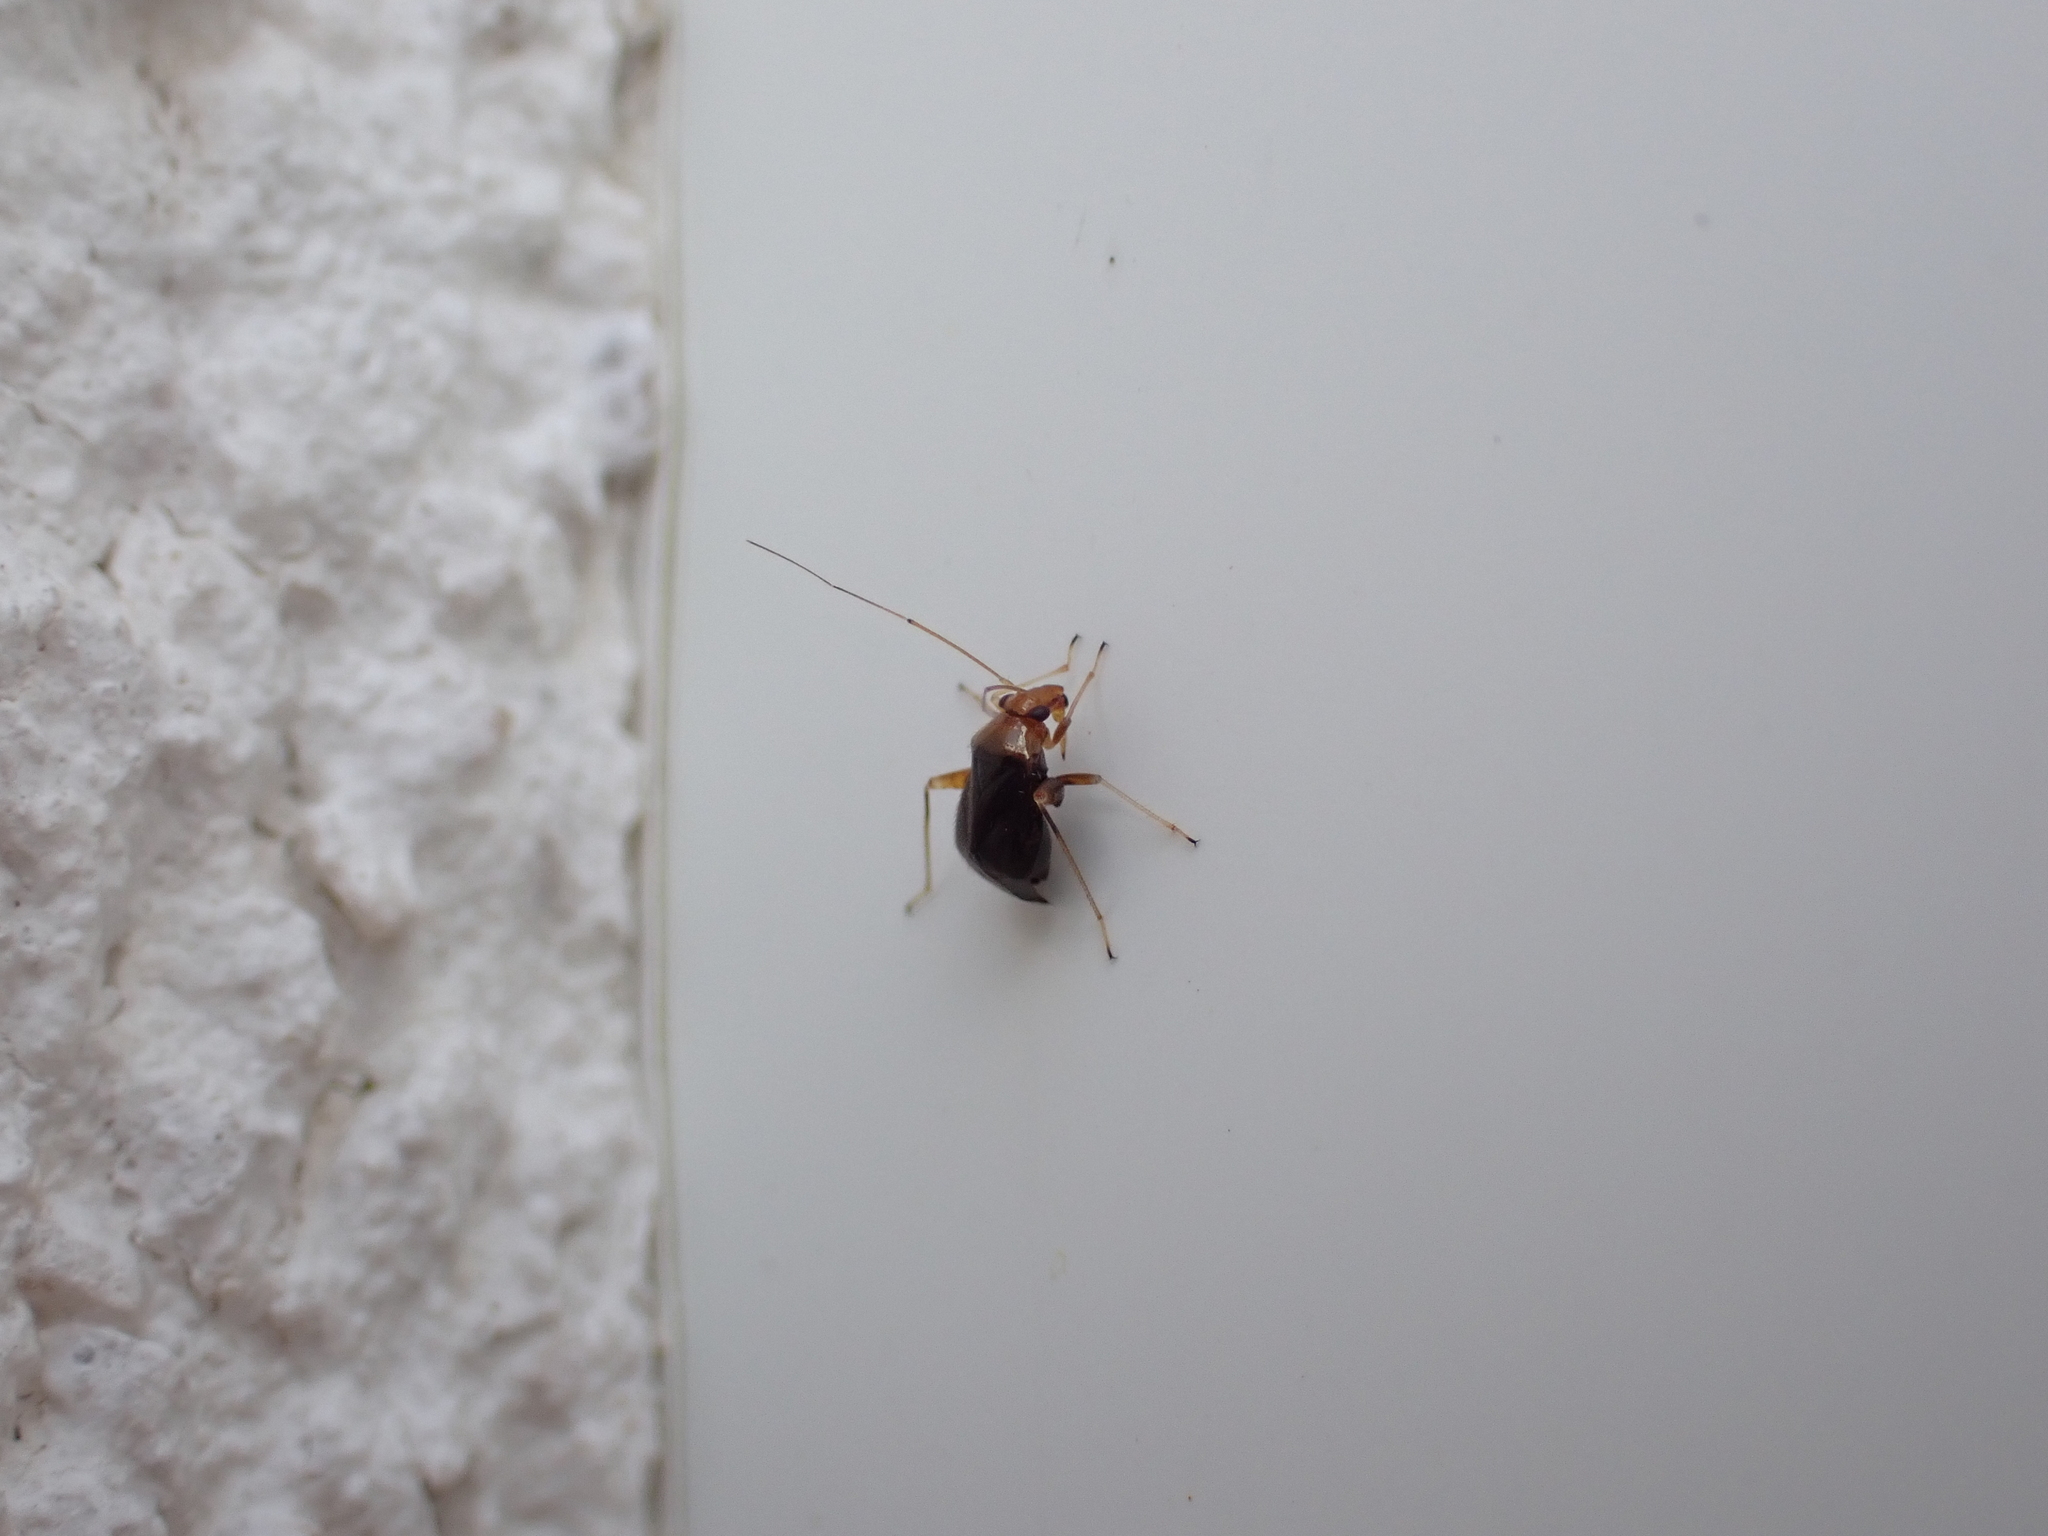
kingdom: Animalia
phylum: Arthropoda
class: Insecta
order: Hemiptera
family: Miridae
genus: Halticus
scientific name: Halticus luteicollis
